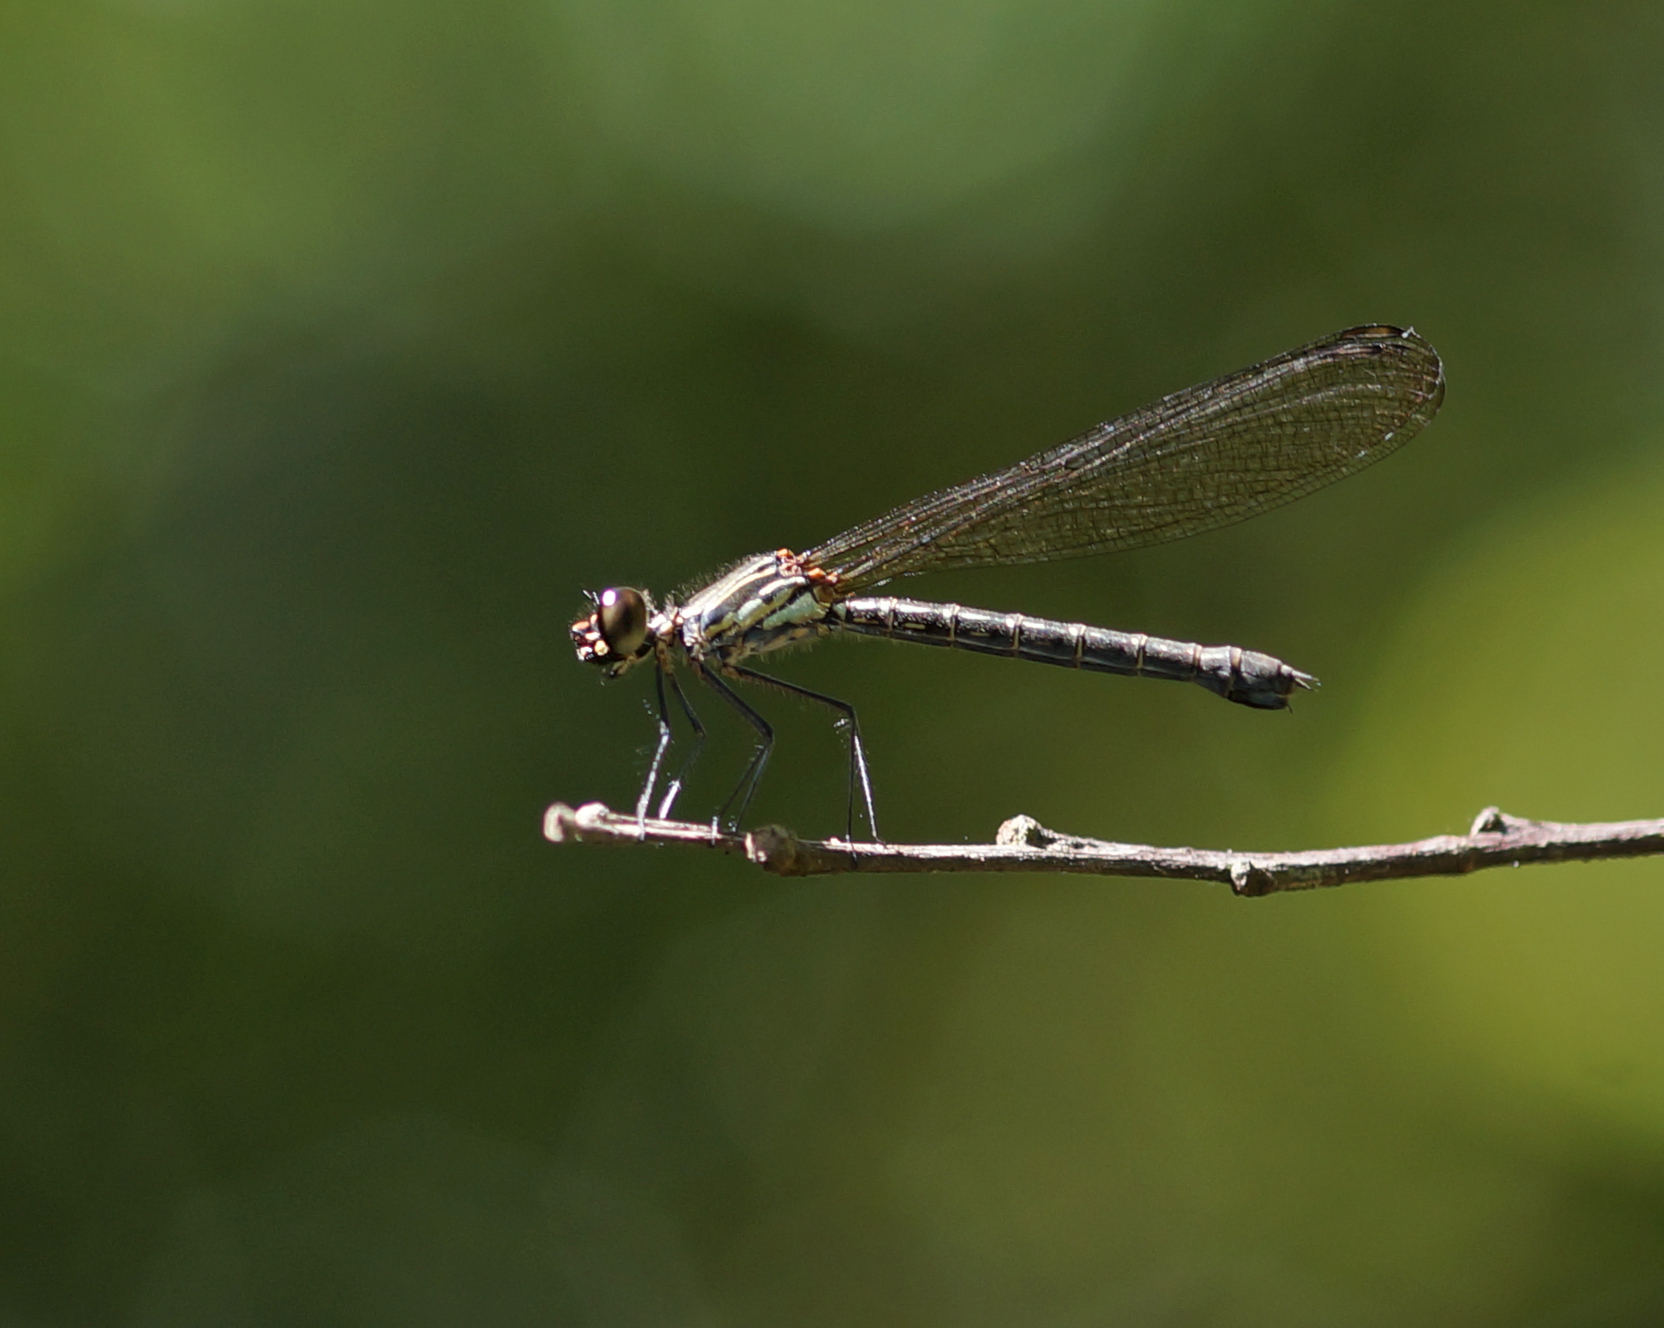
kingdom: Animalia
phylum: Arthropoda
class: Insecta
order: Odonata
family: Chlorocyphidae
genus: Heliocypha
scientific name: Heliocypha biforata
